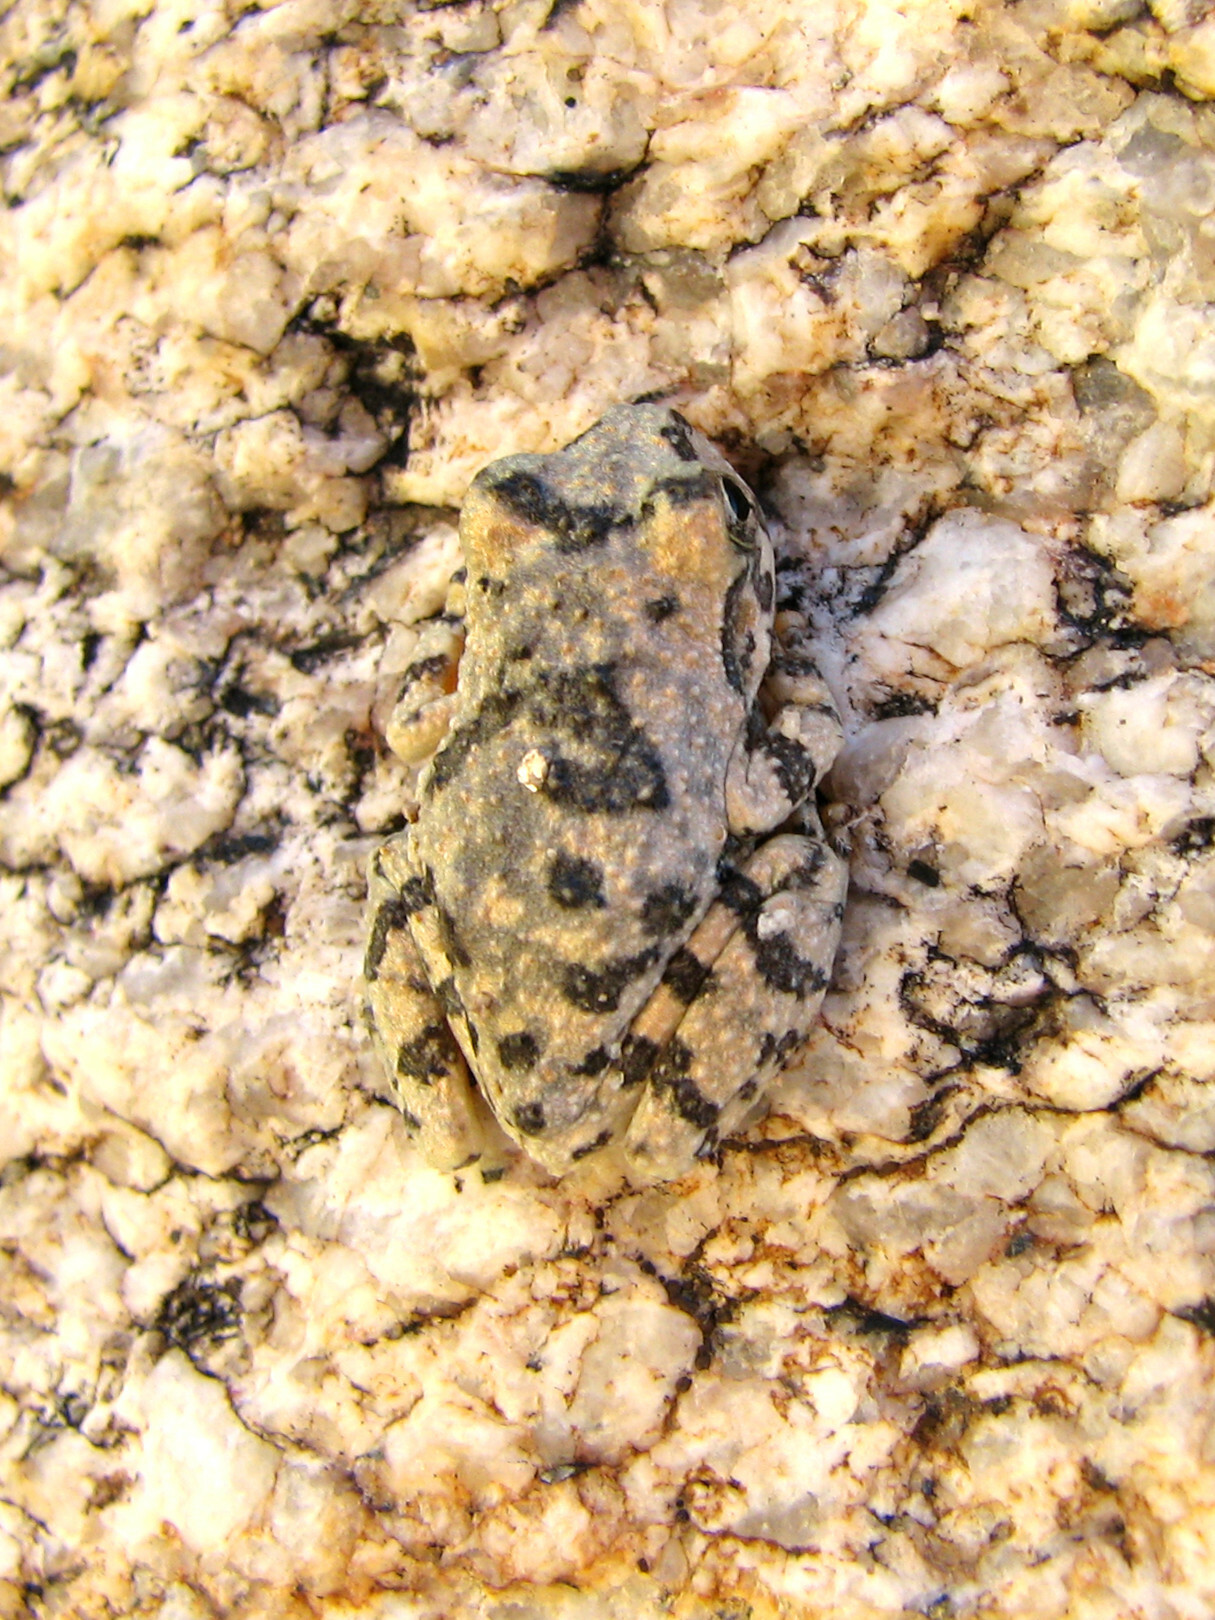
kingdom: Animalia
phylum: Chordata
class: Amphibia
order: Anura
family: Hylidae
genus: Dryophytes
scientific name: Dryophytes arenicolor
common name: Canyon treefrog
